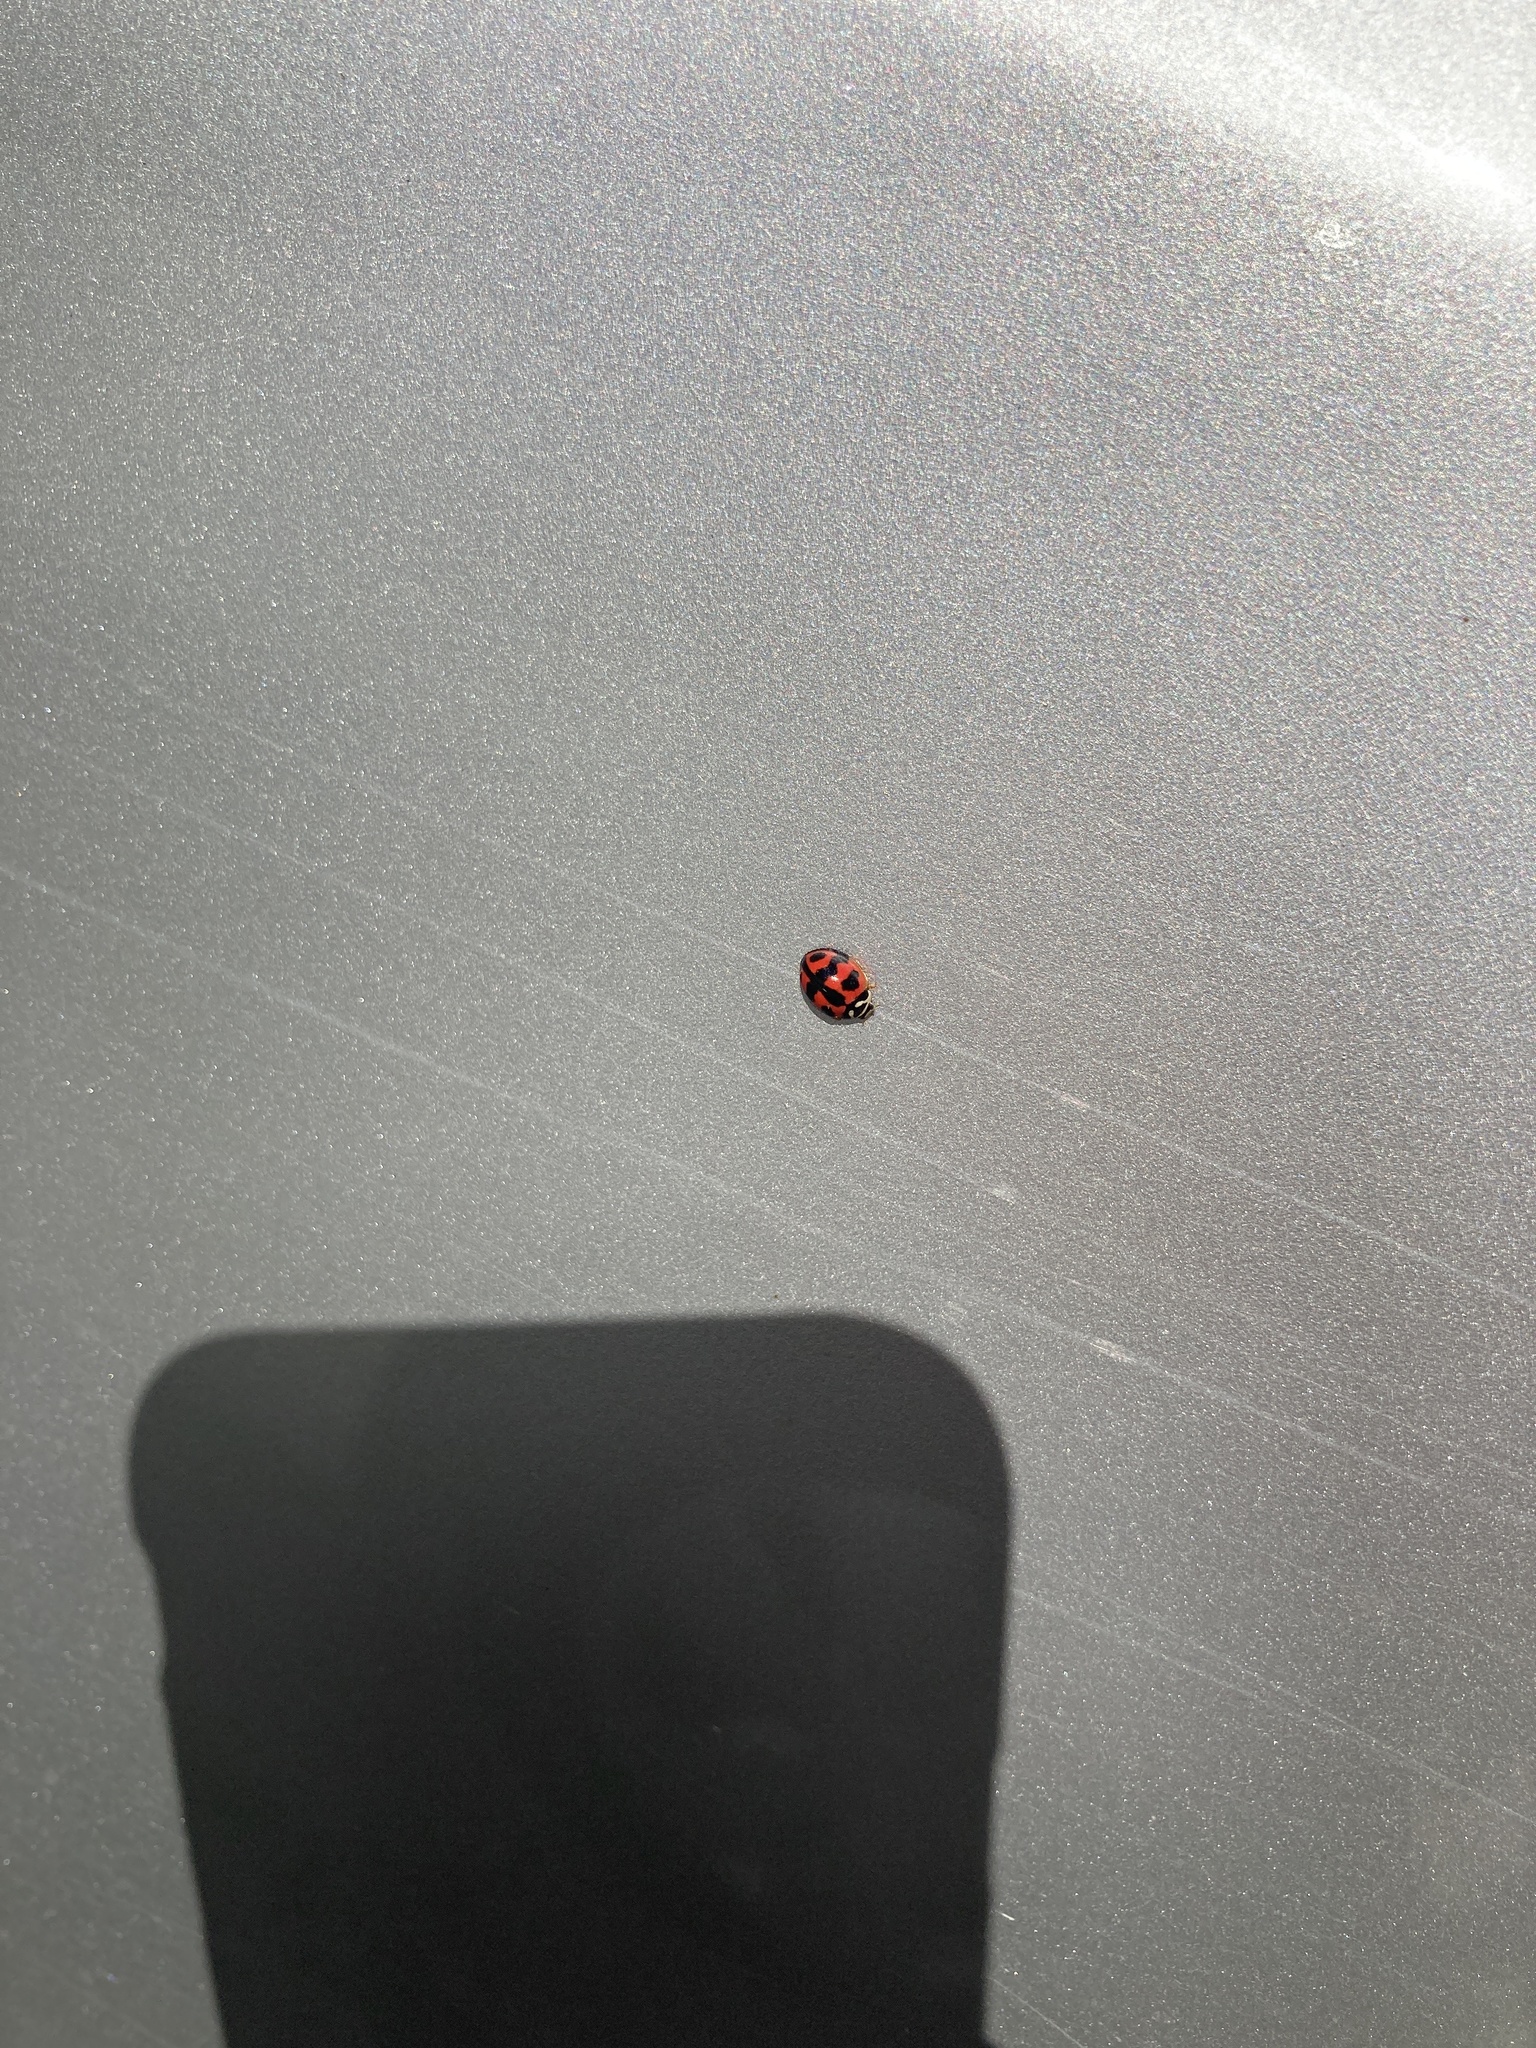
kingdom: Animalia
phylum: Arthropoda
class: Insecta
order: Coleoptera
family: Coccinellidae
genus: Cheilomenes
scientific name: Cheilomenes sexmaculata
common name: Ladybird beetle
